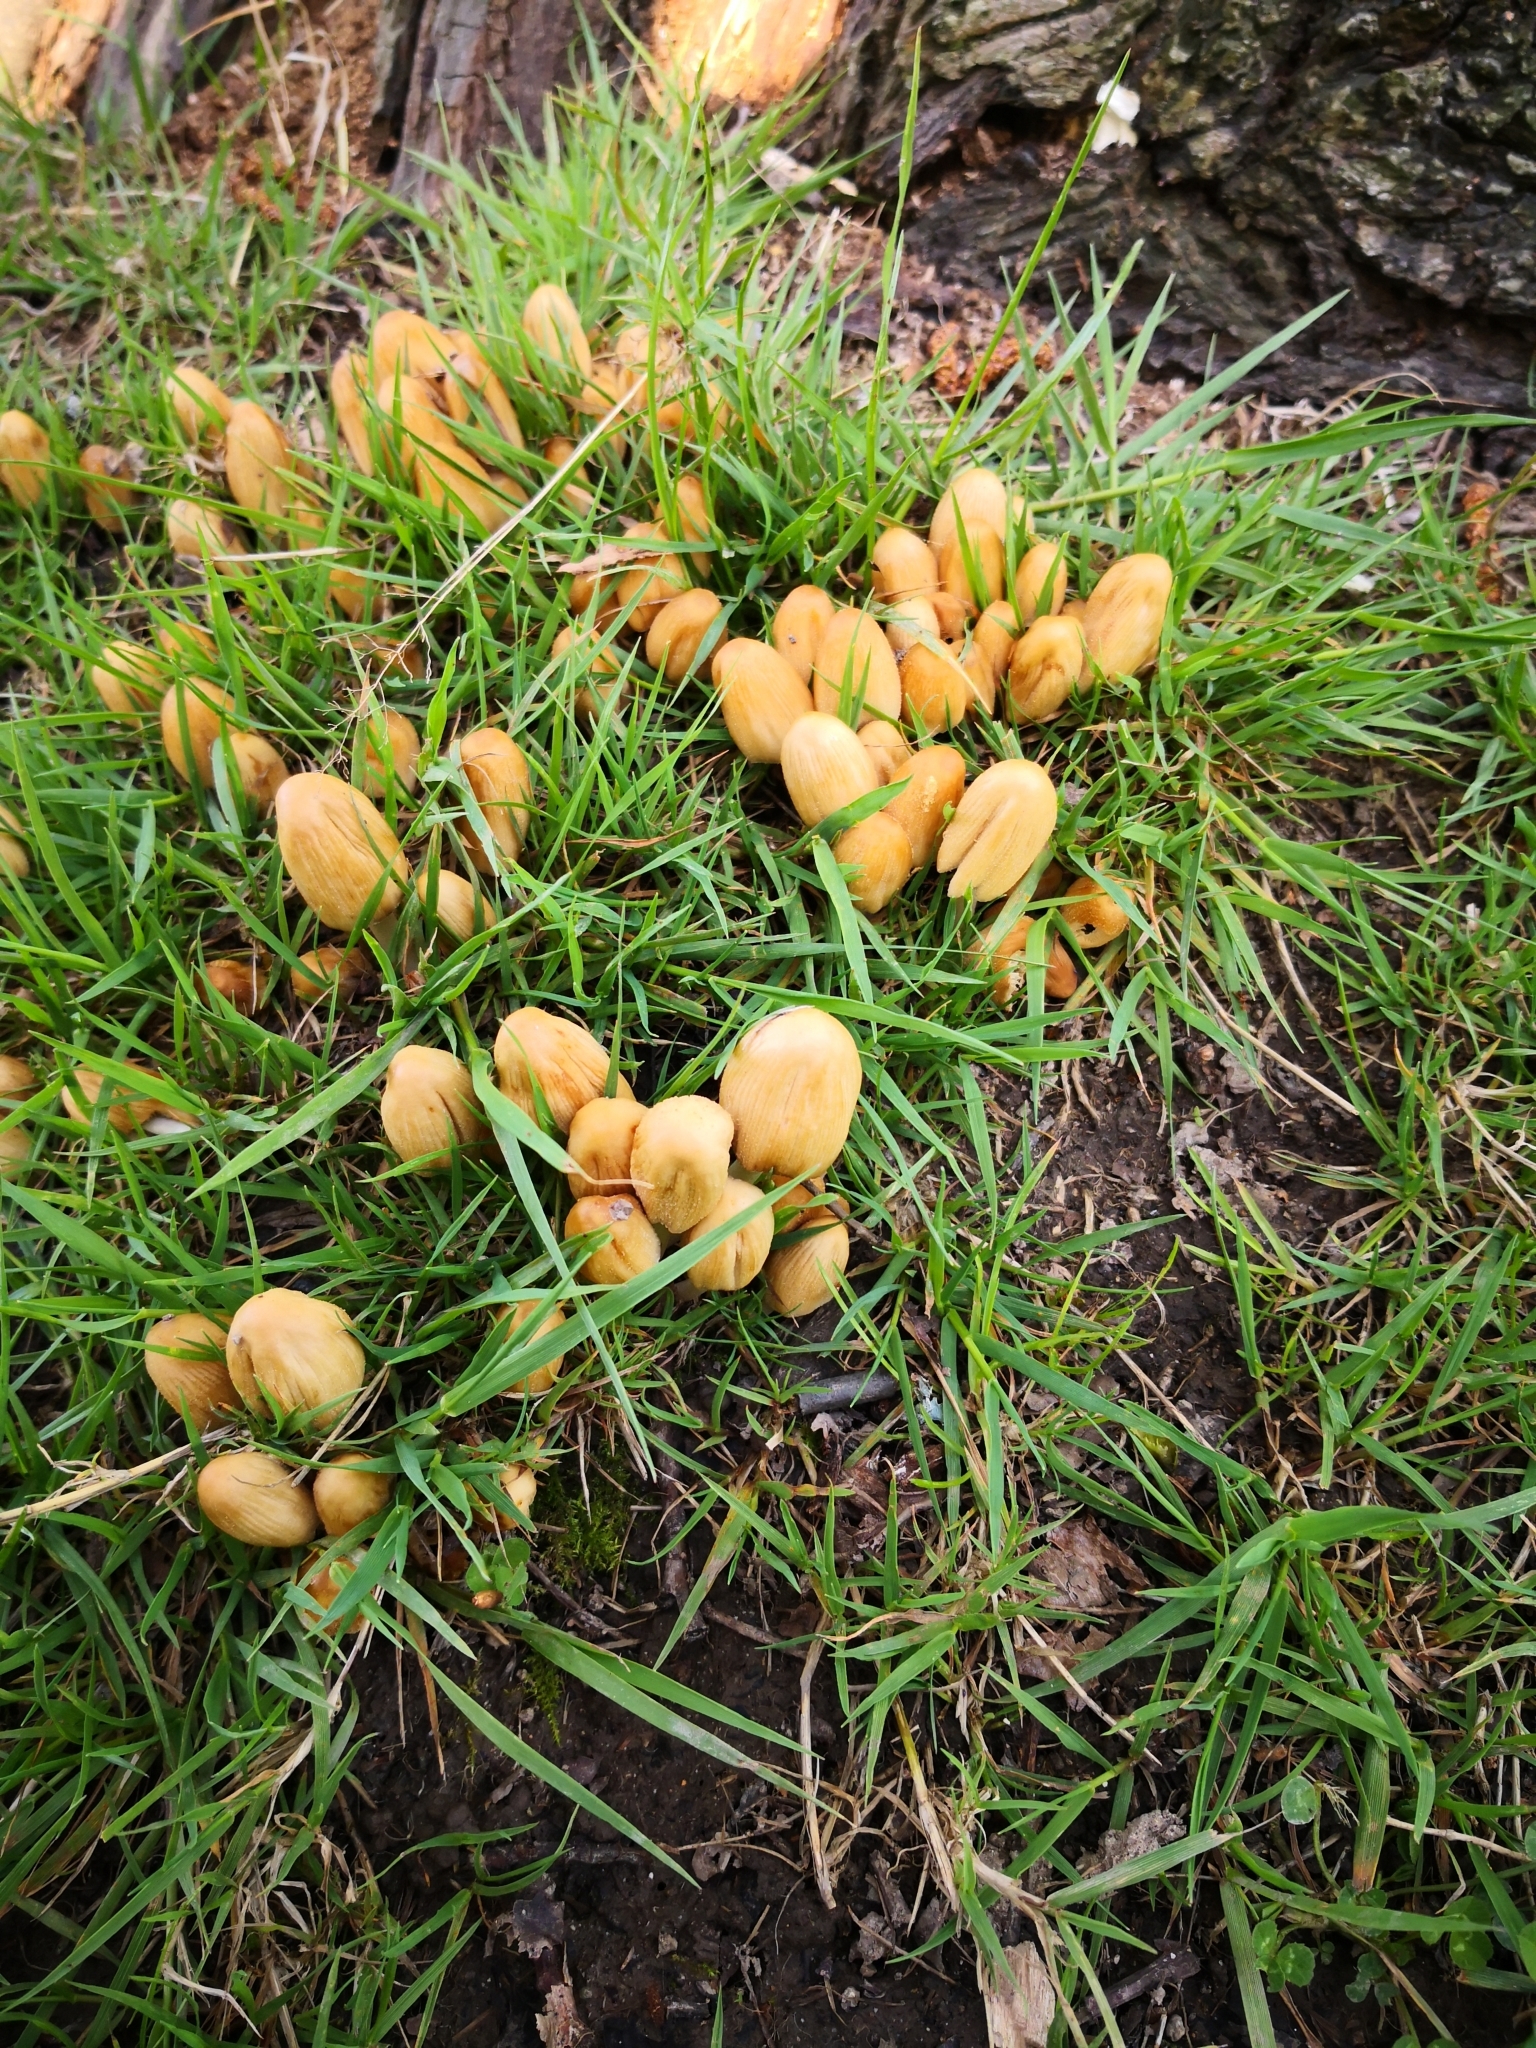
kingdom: Fungi
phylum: Basidiomycota
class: Agaricomycetes
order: Agaricales
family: Psathyrellaceae
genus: Coprinellus
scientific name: Coprinellus micaceus
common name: Glistening ink-cap
